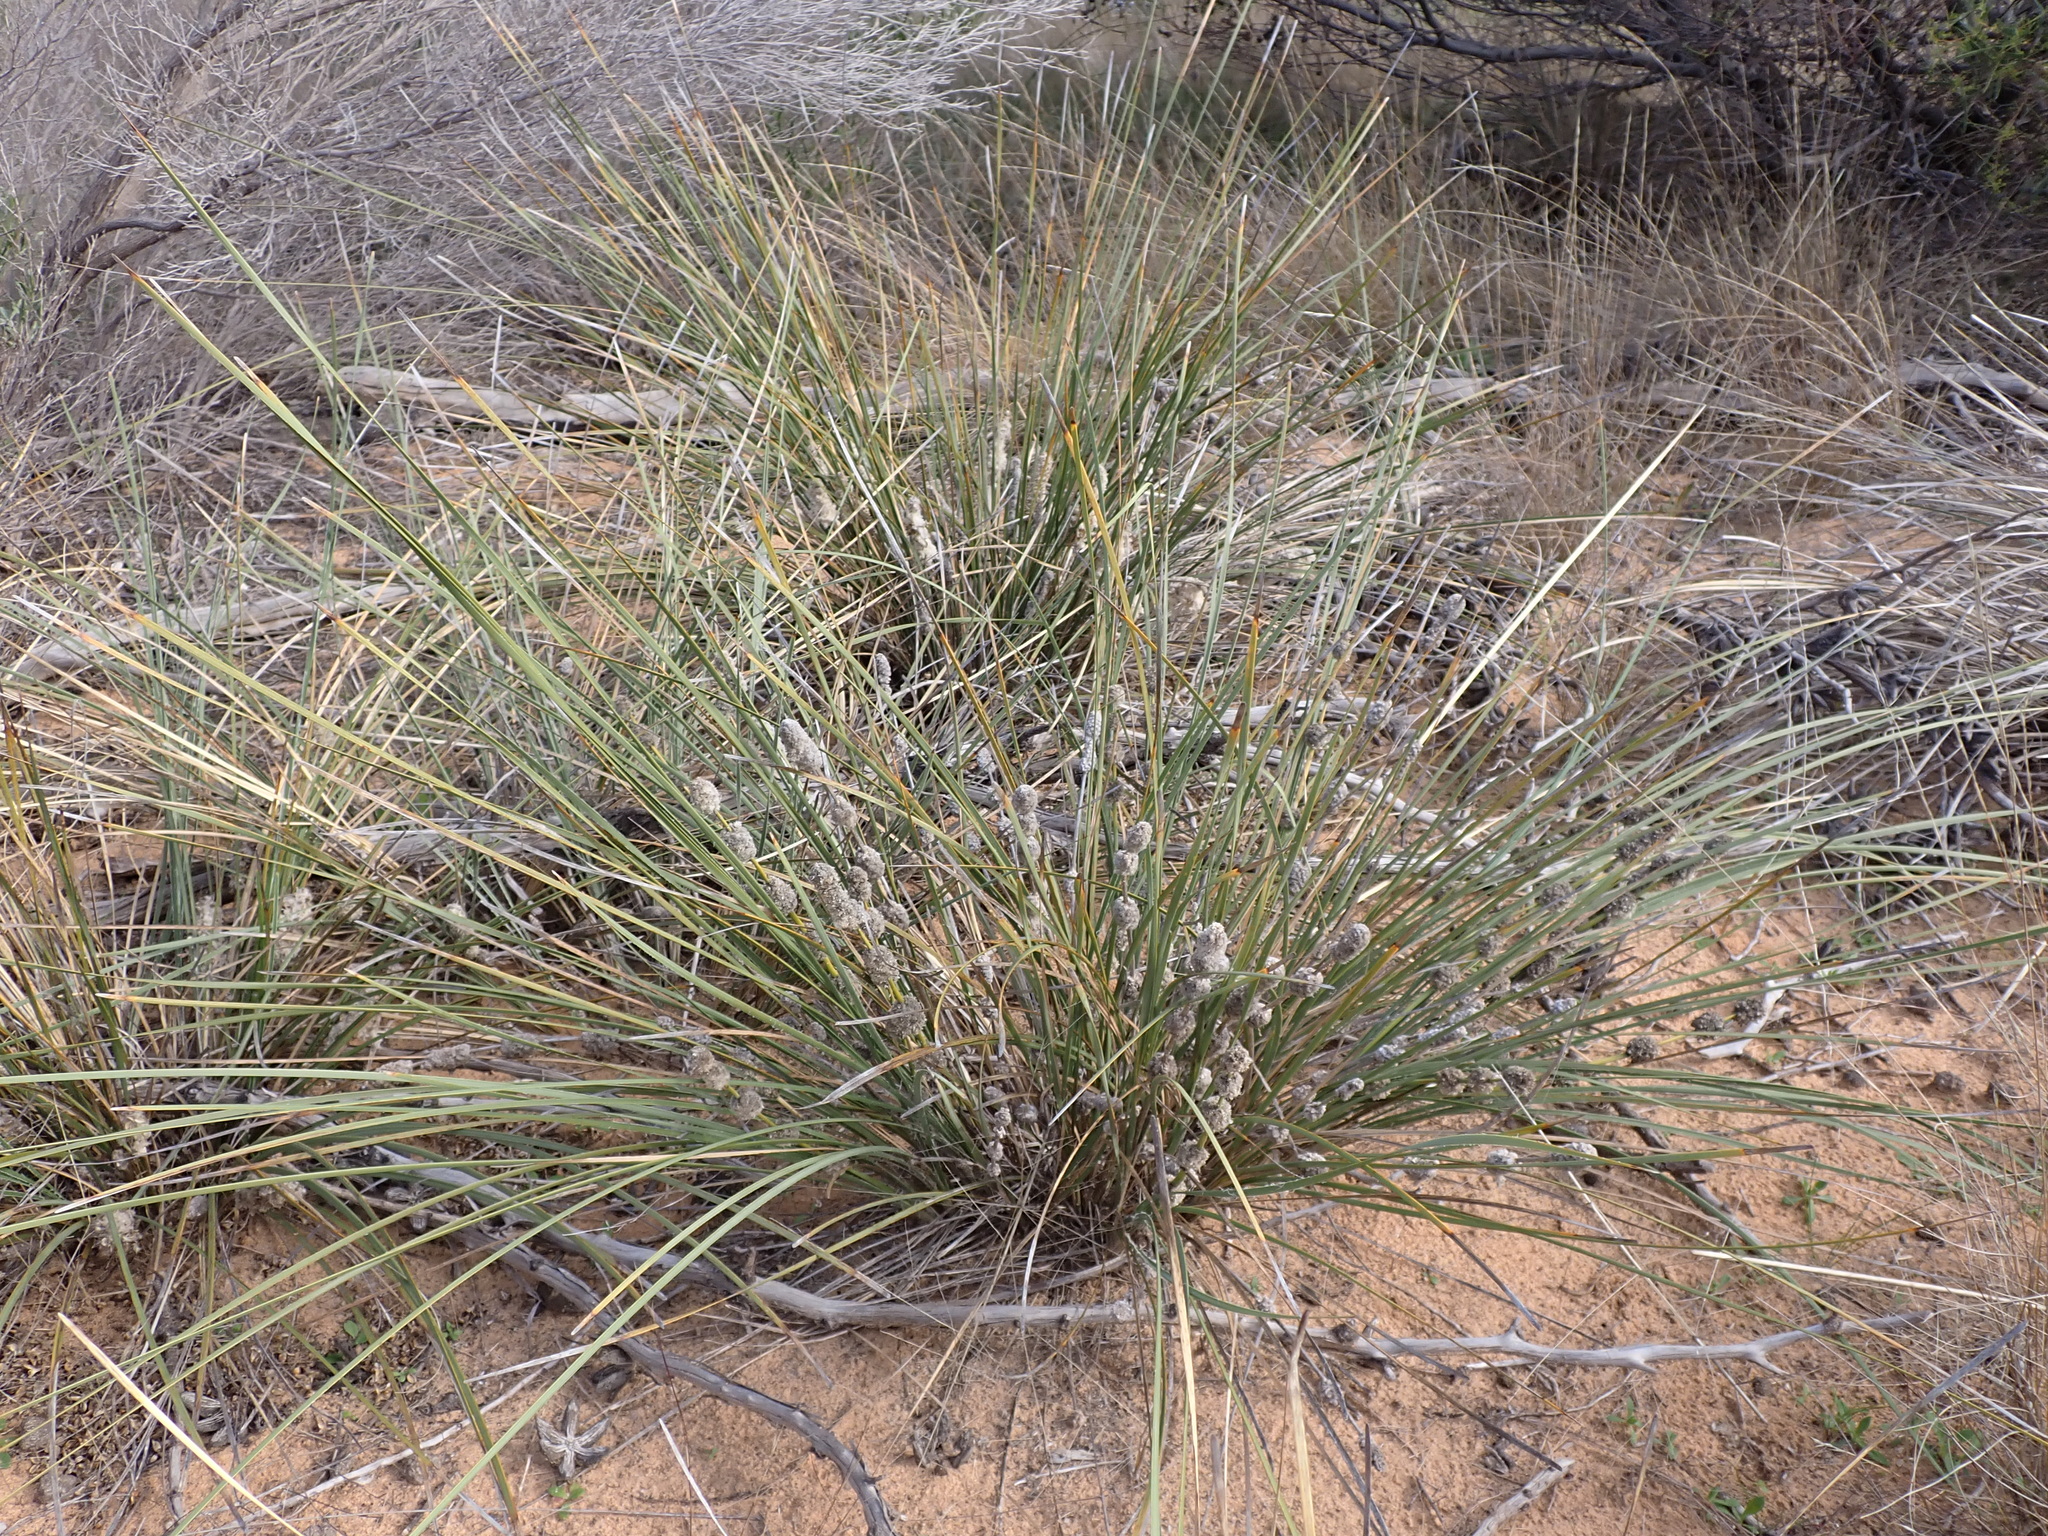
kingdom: Plantae
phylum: Tracheophyta
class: Liliopsida
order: Asparagales
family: Asparagaceae
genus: Lomandra
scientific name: Lomandra leucocephala
